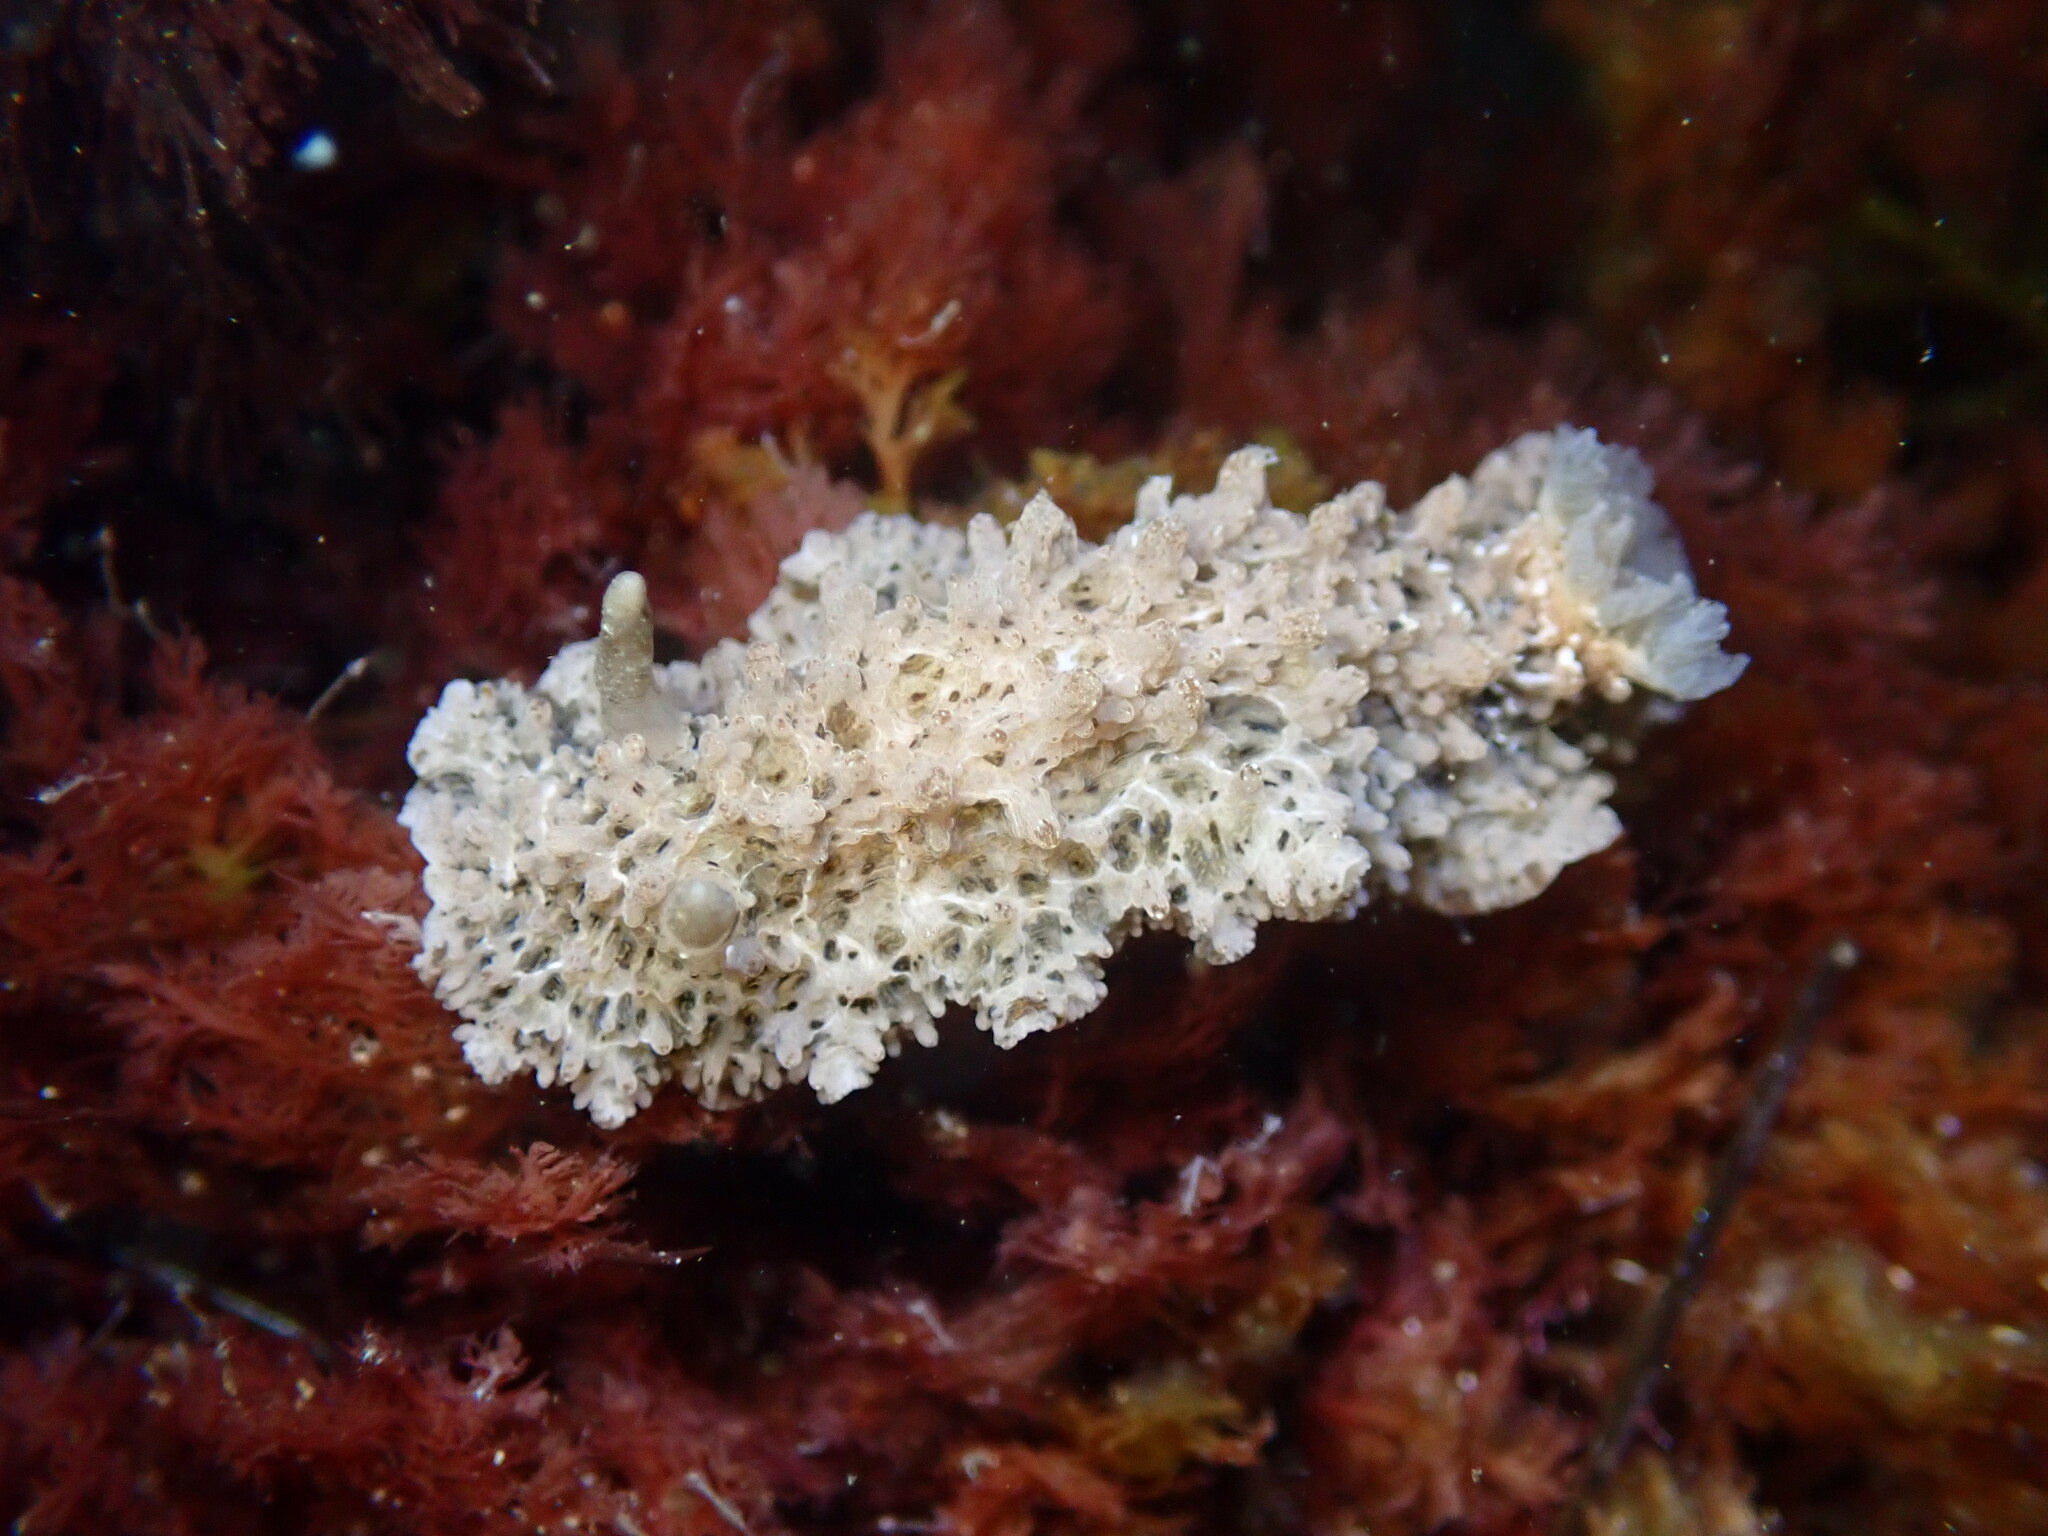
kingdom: Animalia
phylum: Mollusca
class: Gastropoda
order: Nudibranchia
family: Dorididae
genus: Doris
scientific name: Doris tanya
